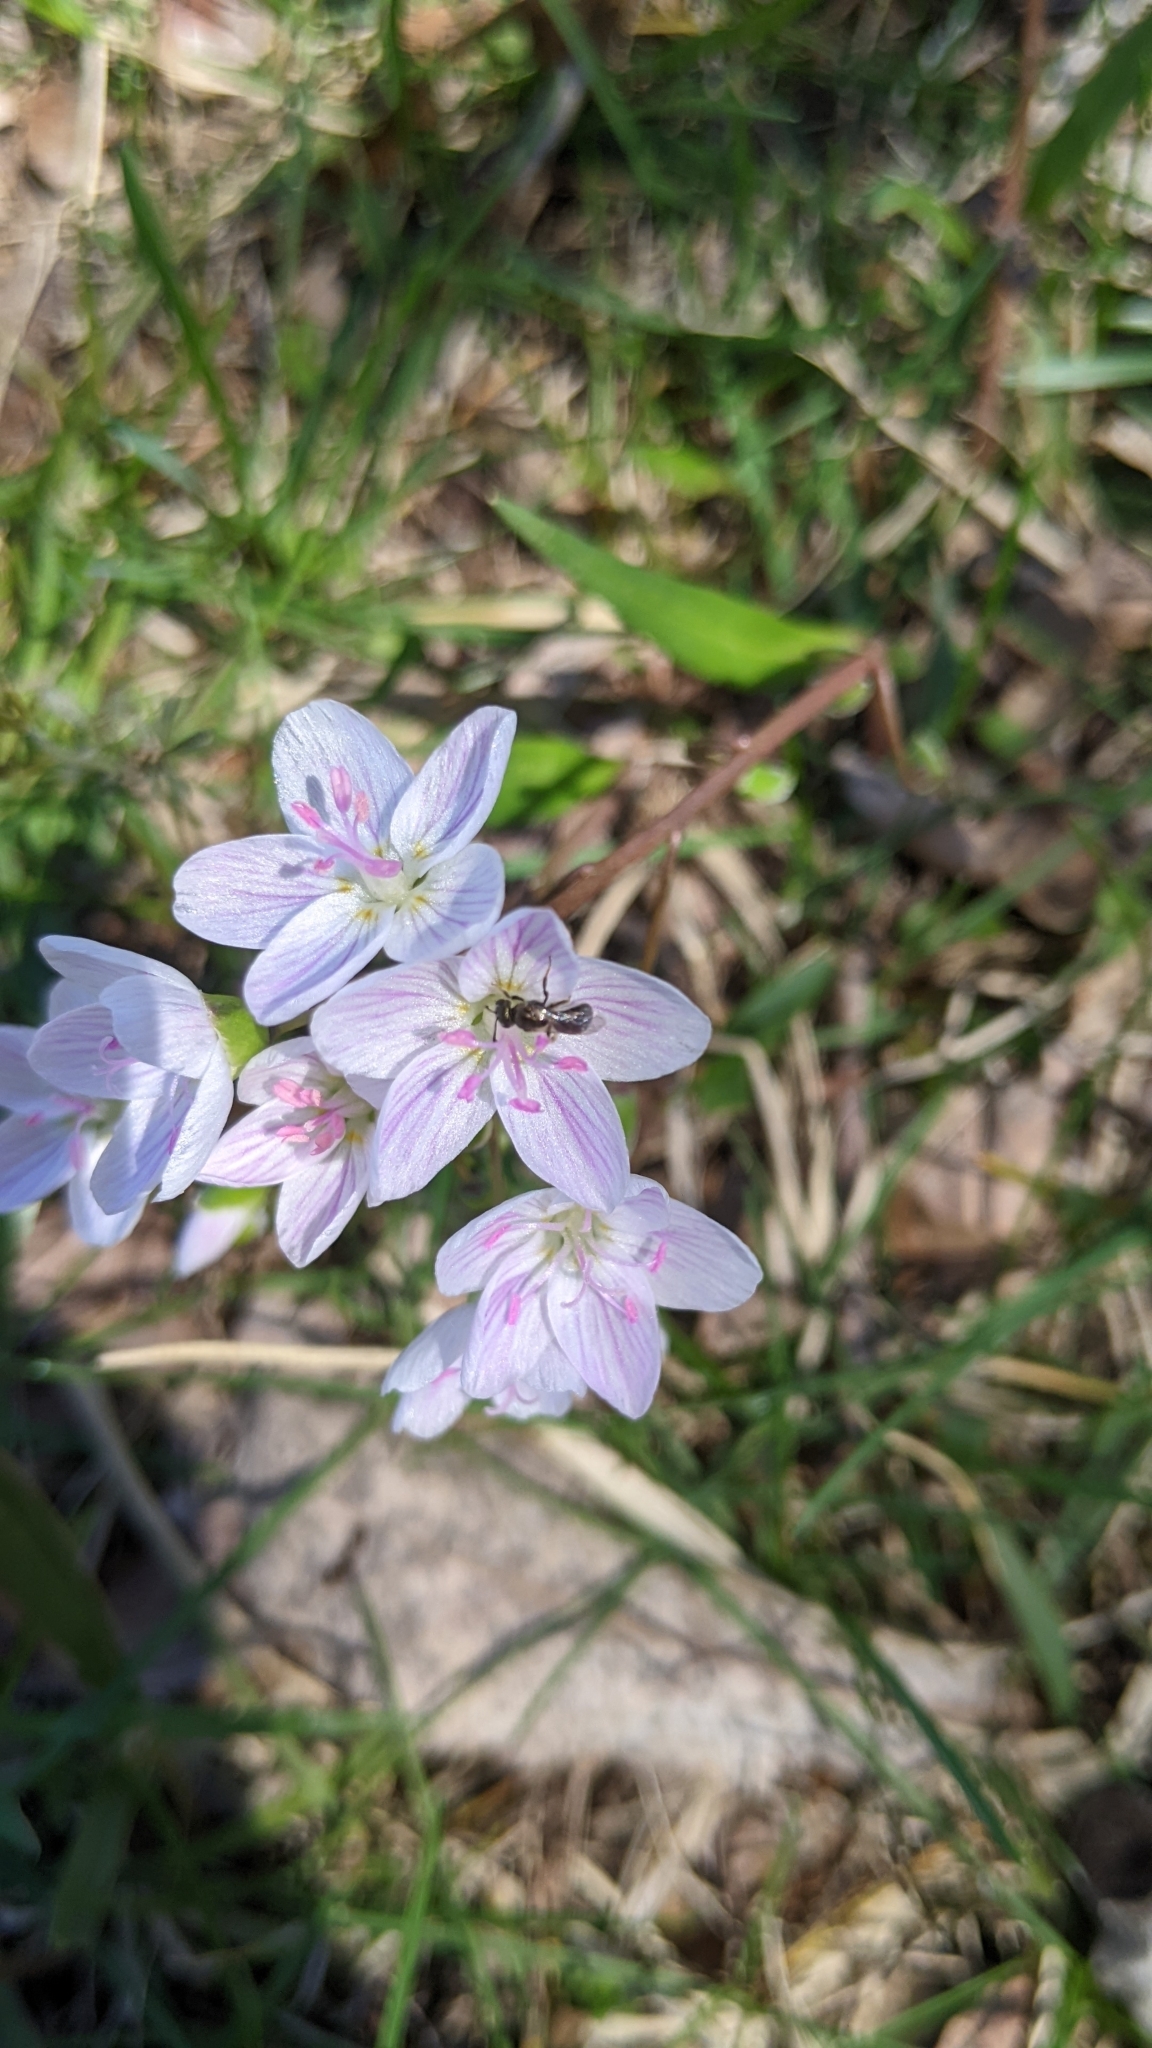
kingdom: Animalia
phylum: Arthropoda
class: Insecta
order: Hymenoptera
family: Halictidae
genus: Dialictus
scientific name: Dialictus
